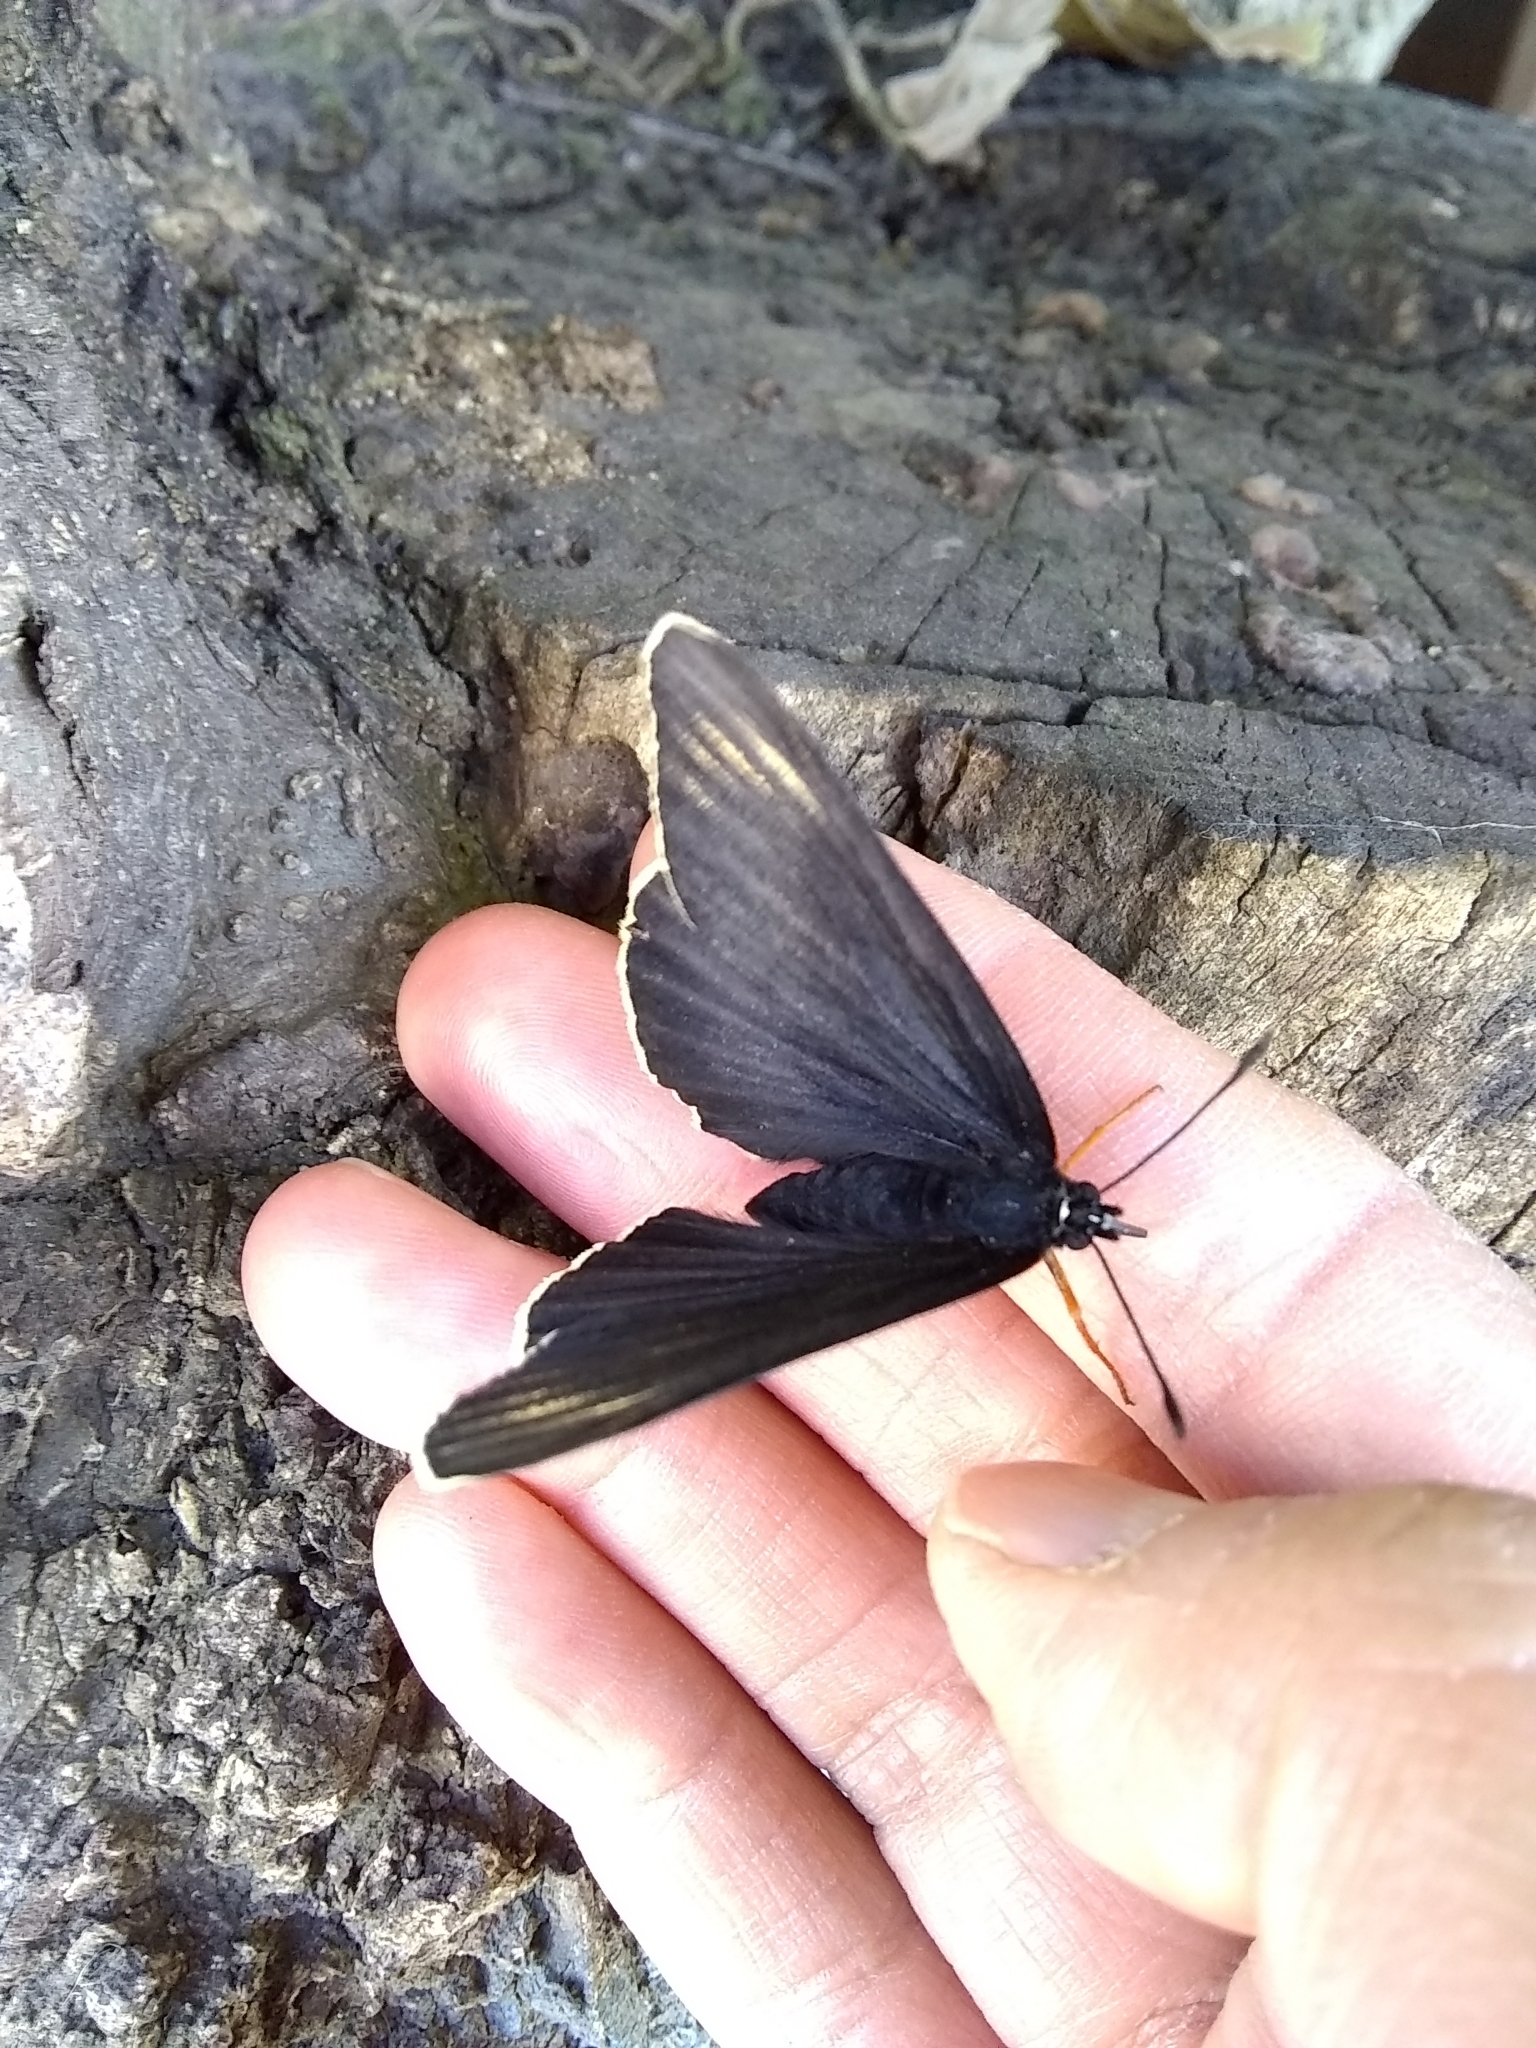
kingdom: Animalia
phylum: Arthropoda
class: Insecta
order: Lepidoptera
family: Nymphalidae
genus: Chlosyne
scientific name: Chlosyne ehrenbergii
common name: White-rayed patch
